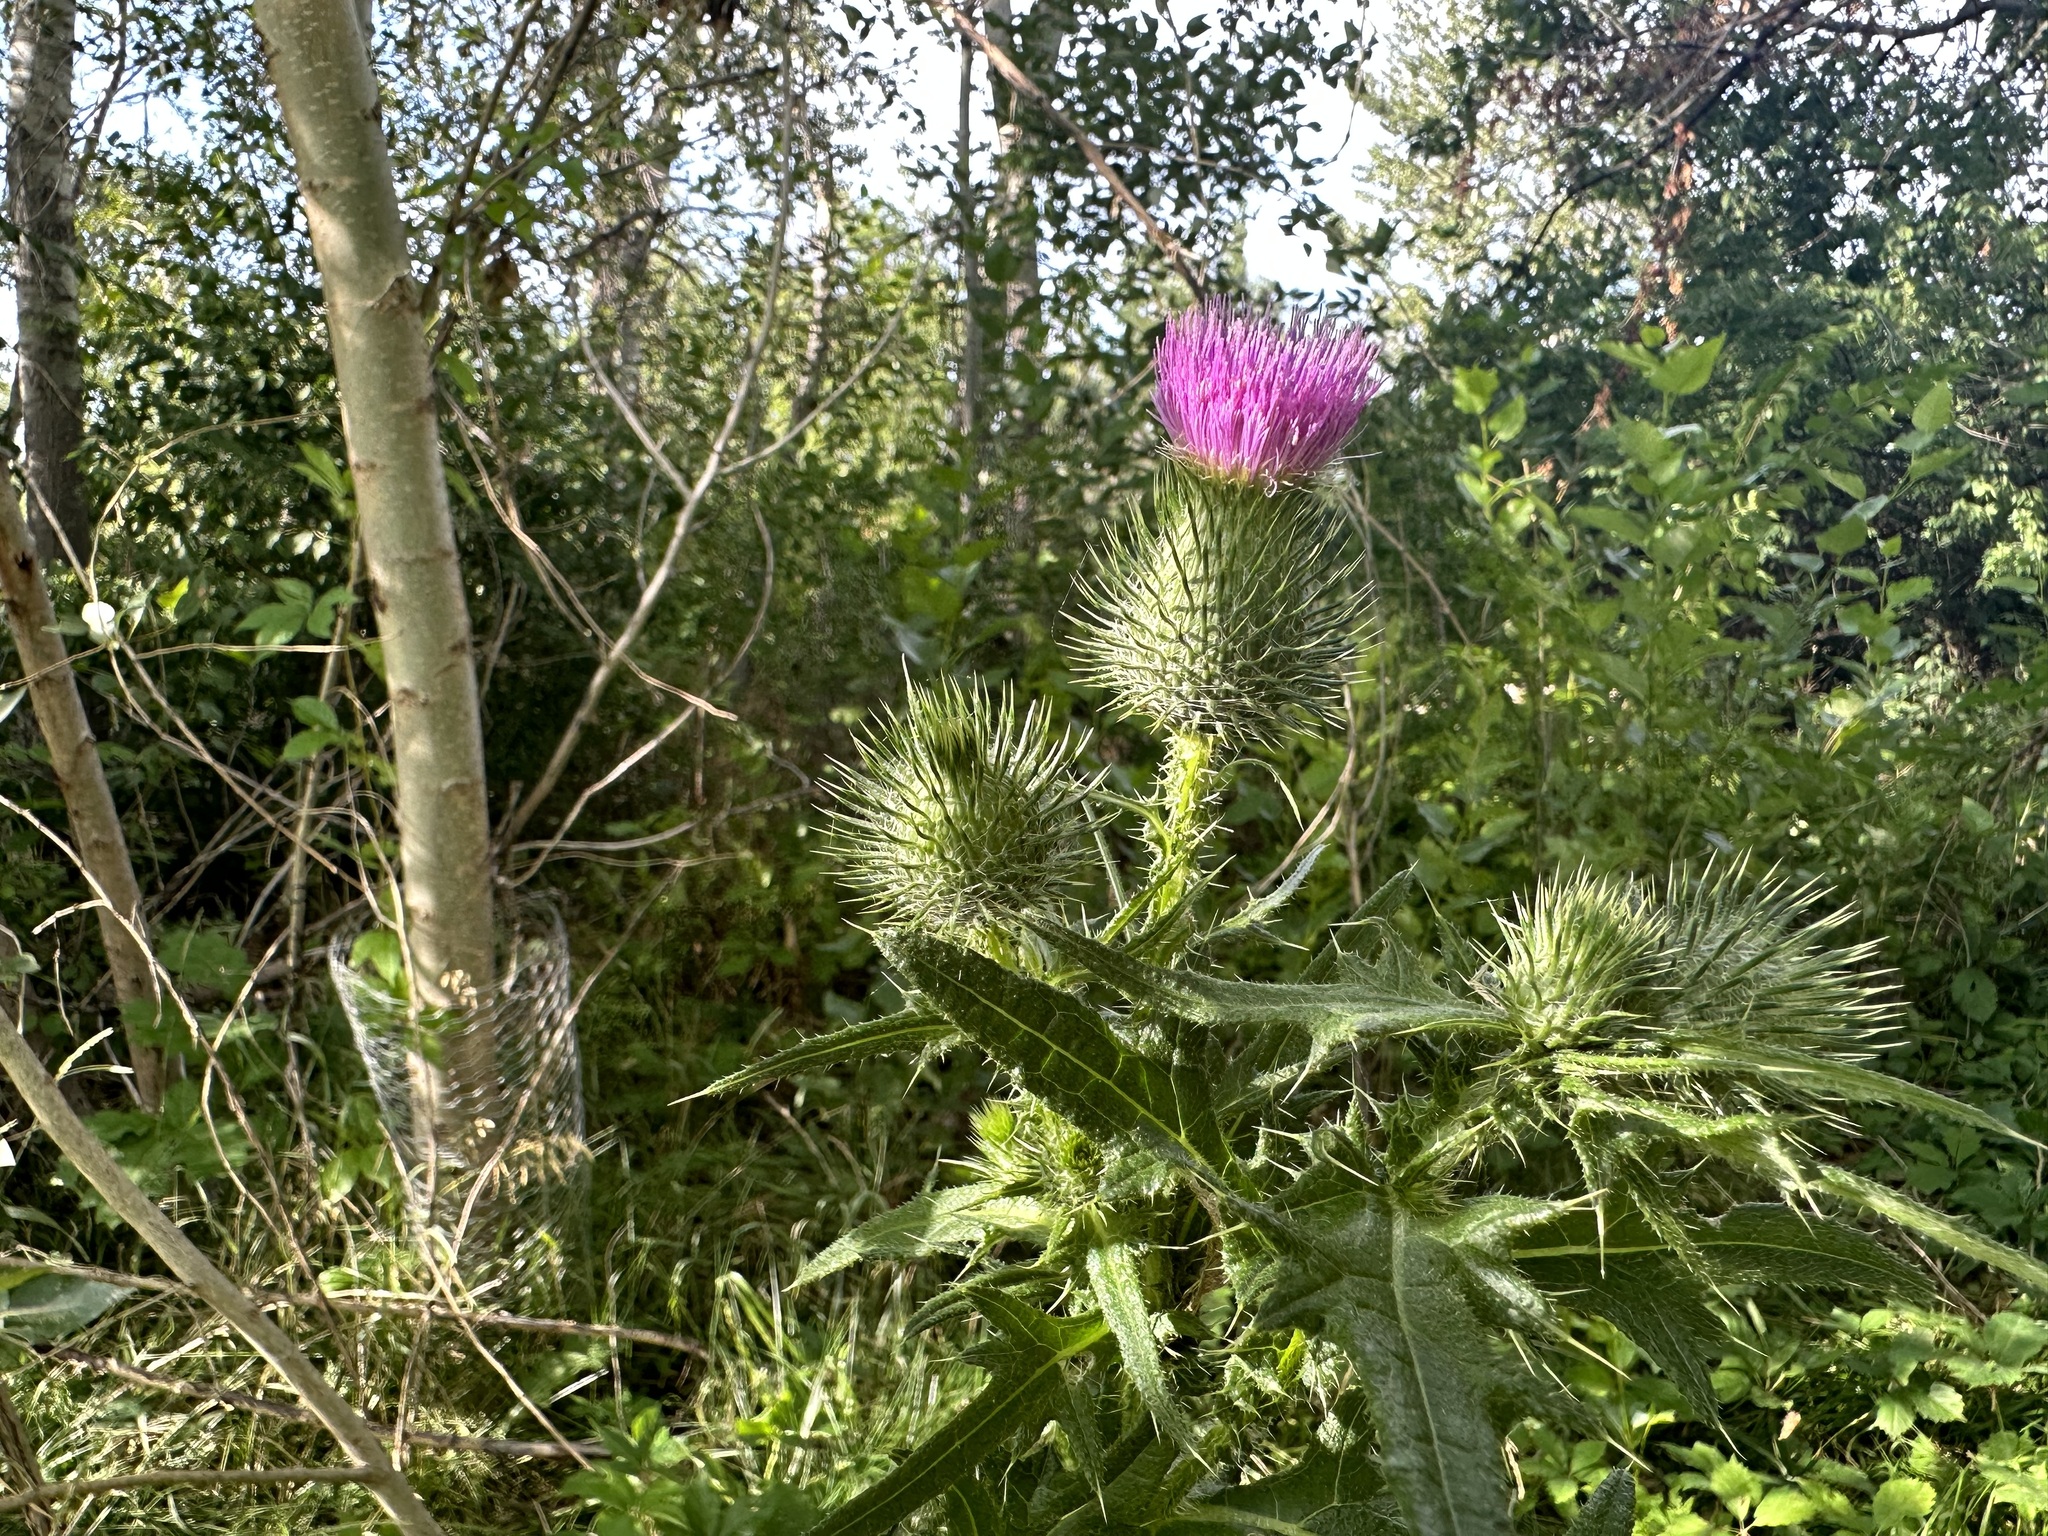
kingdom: Plantae
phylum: Tracheophyta
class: Magnoliopsida
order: Asterales
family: Asteraceae
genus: Cirsium
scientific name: Cirsium vulgare
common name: Bull thistle
